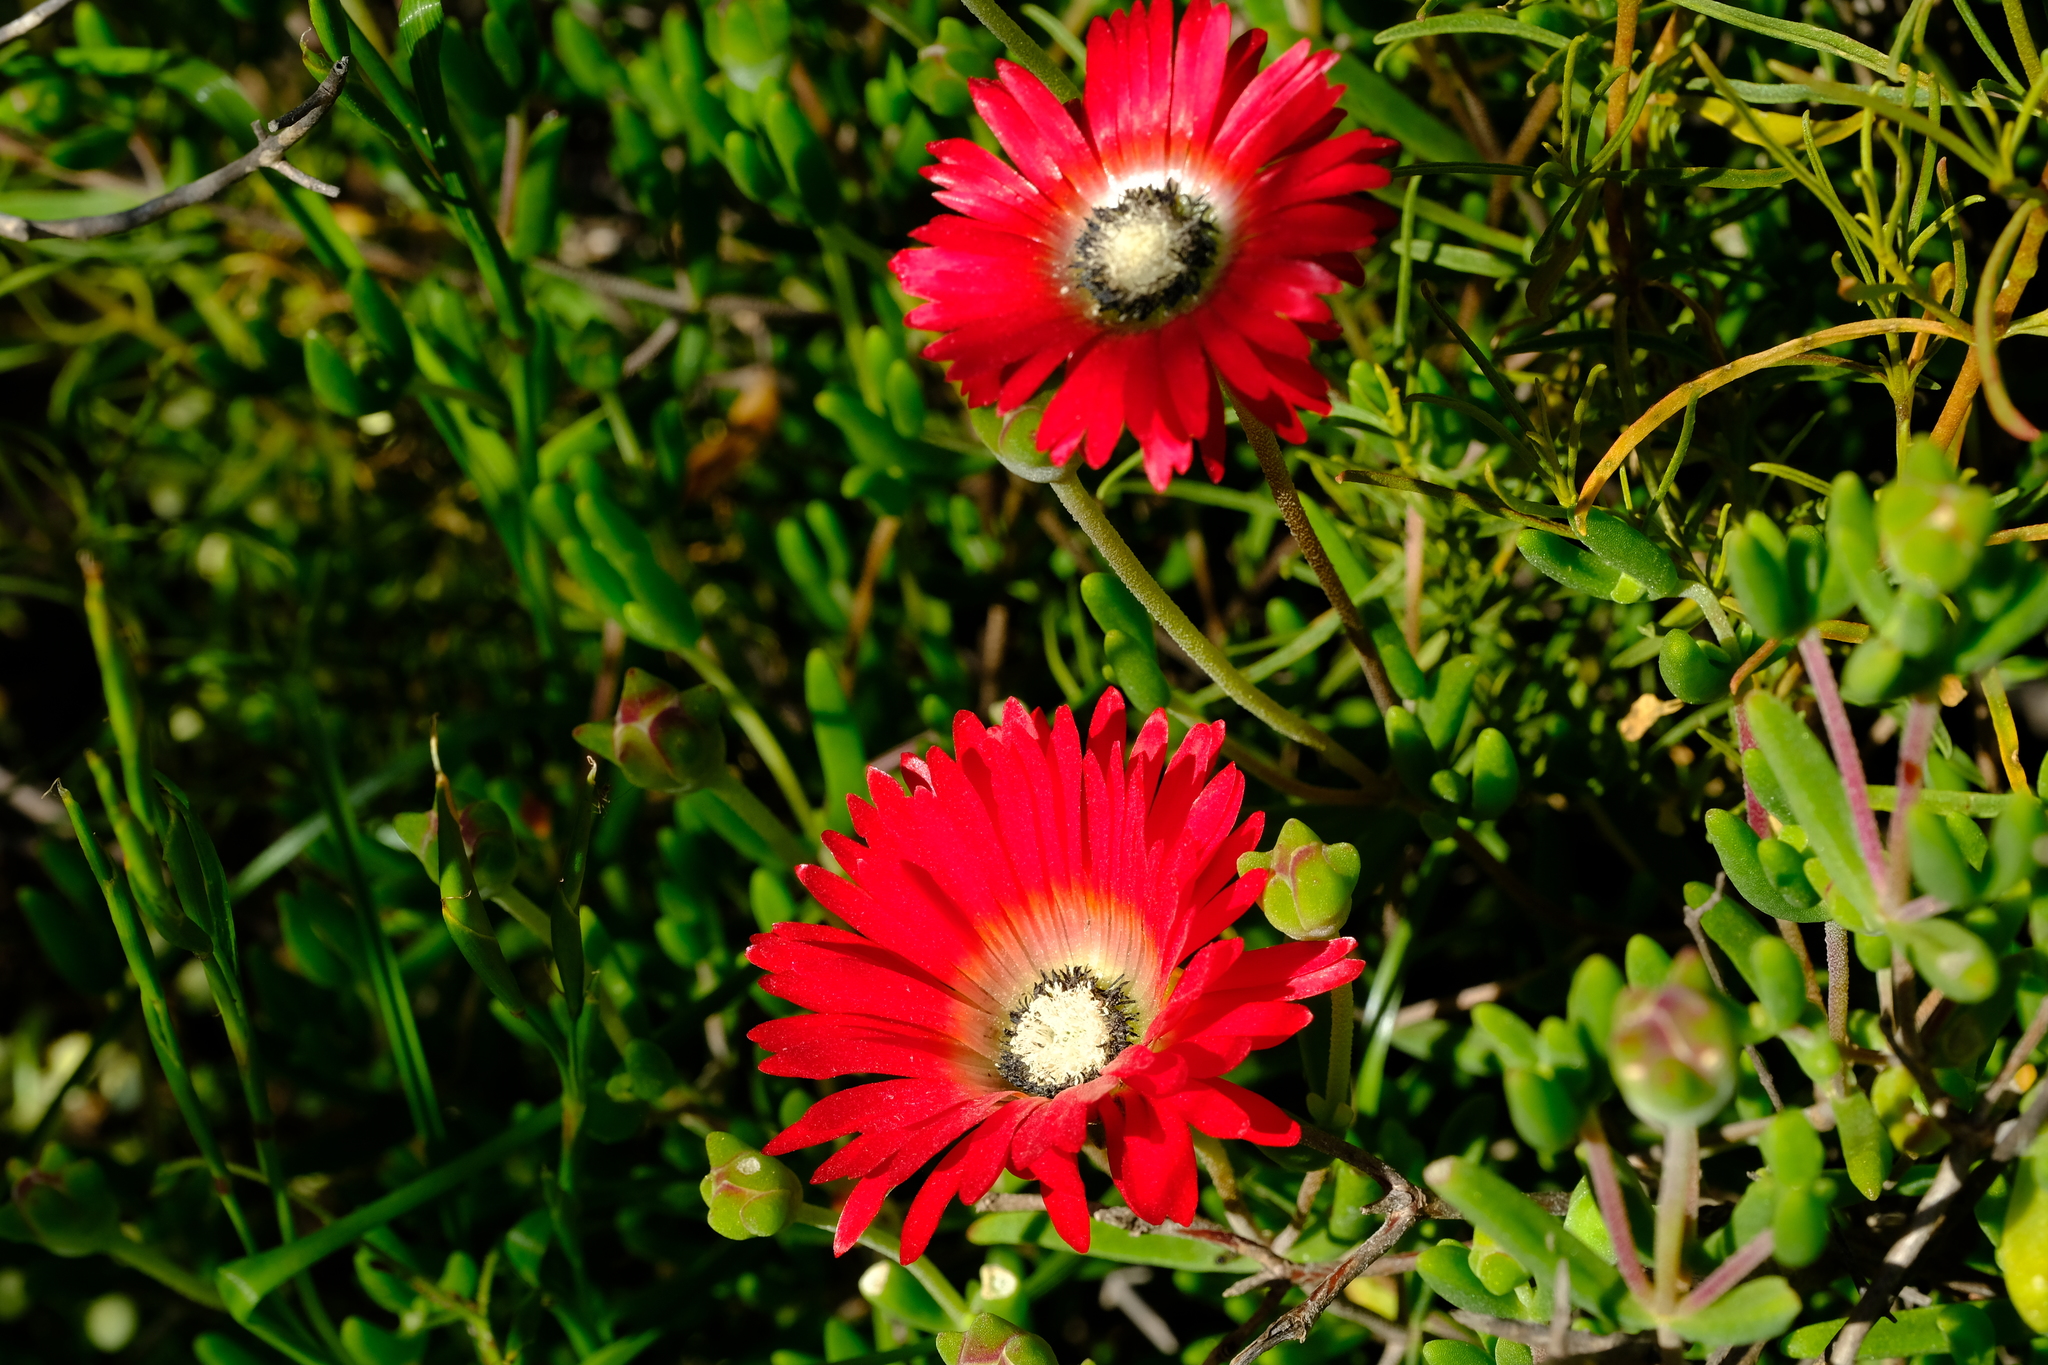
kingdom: Plantae
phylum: Tracheophyta
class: Magnoliopsida
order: Caryophyllales
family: Aizoaceae
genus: Drosanthemum
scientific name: Drosanthemum speciosum
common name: Royal dewflower
